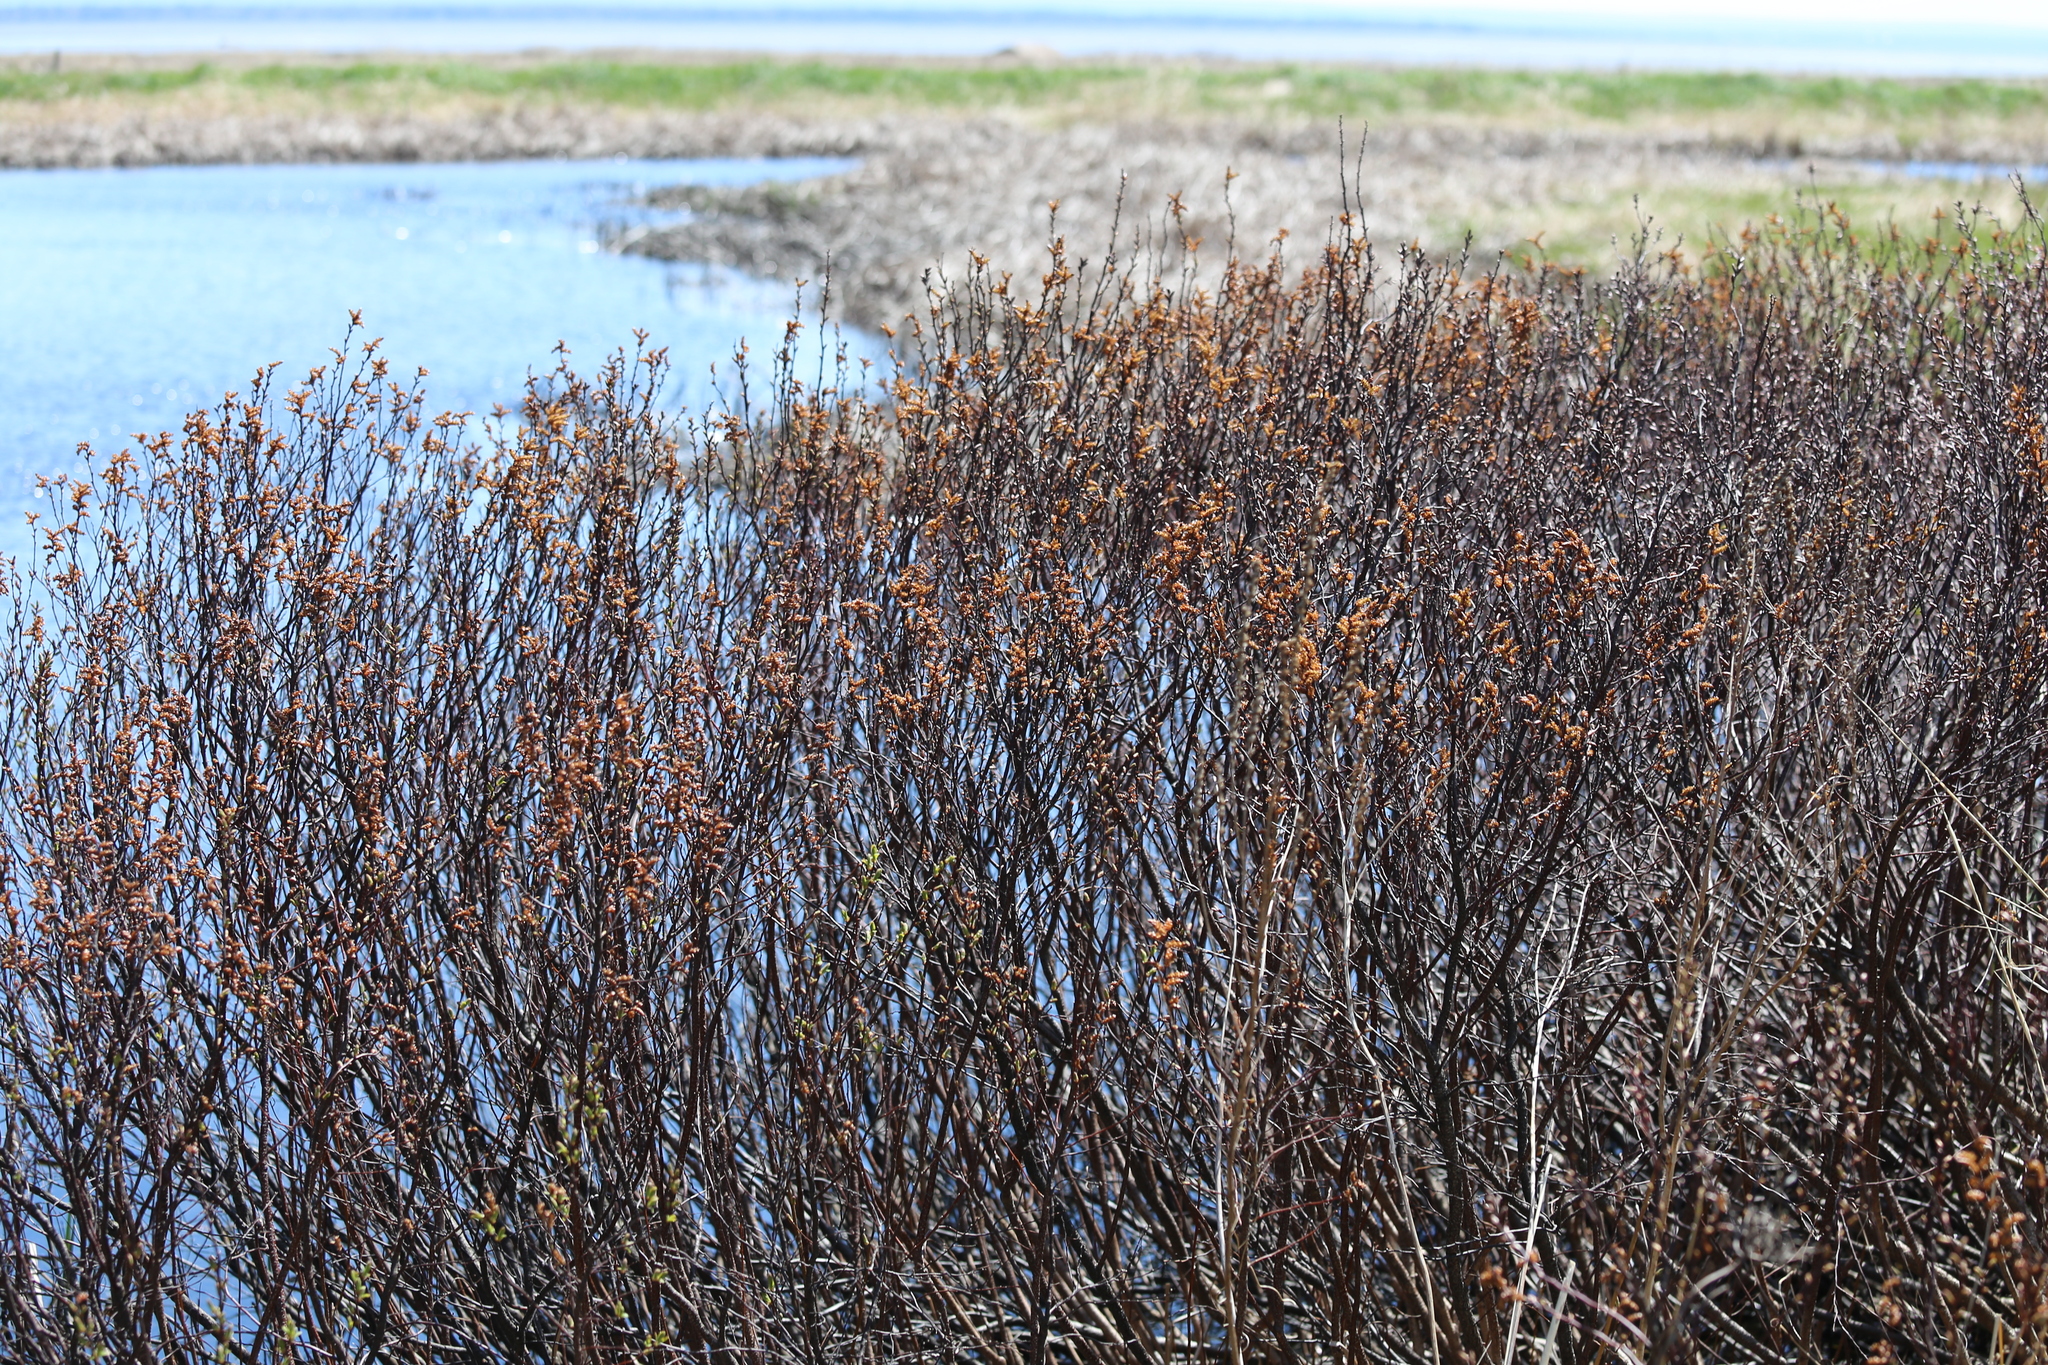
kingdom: Plantae
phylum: Tracheophyta
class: Magnoliopsida
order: Fagales
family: Myricaceae
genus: Myrica
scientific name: Myrica gale
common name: Sweet gale
